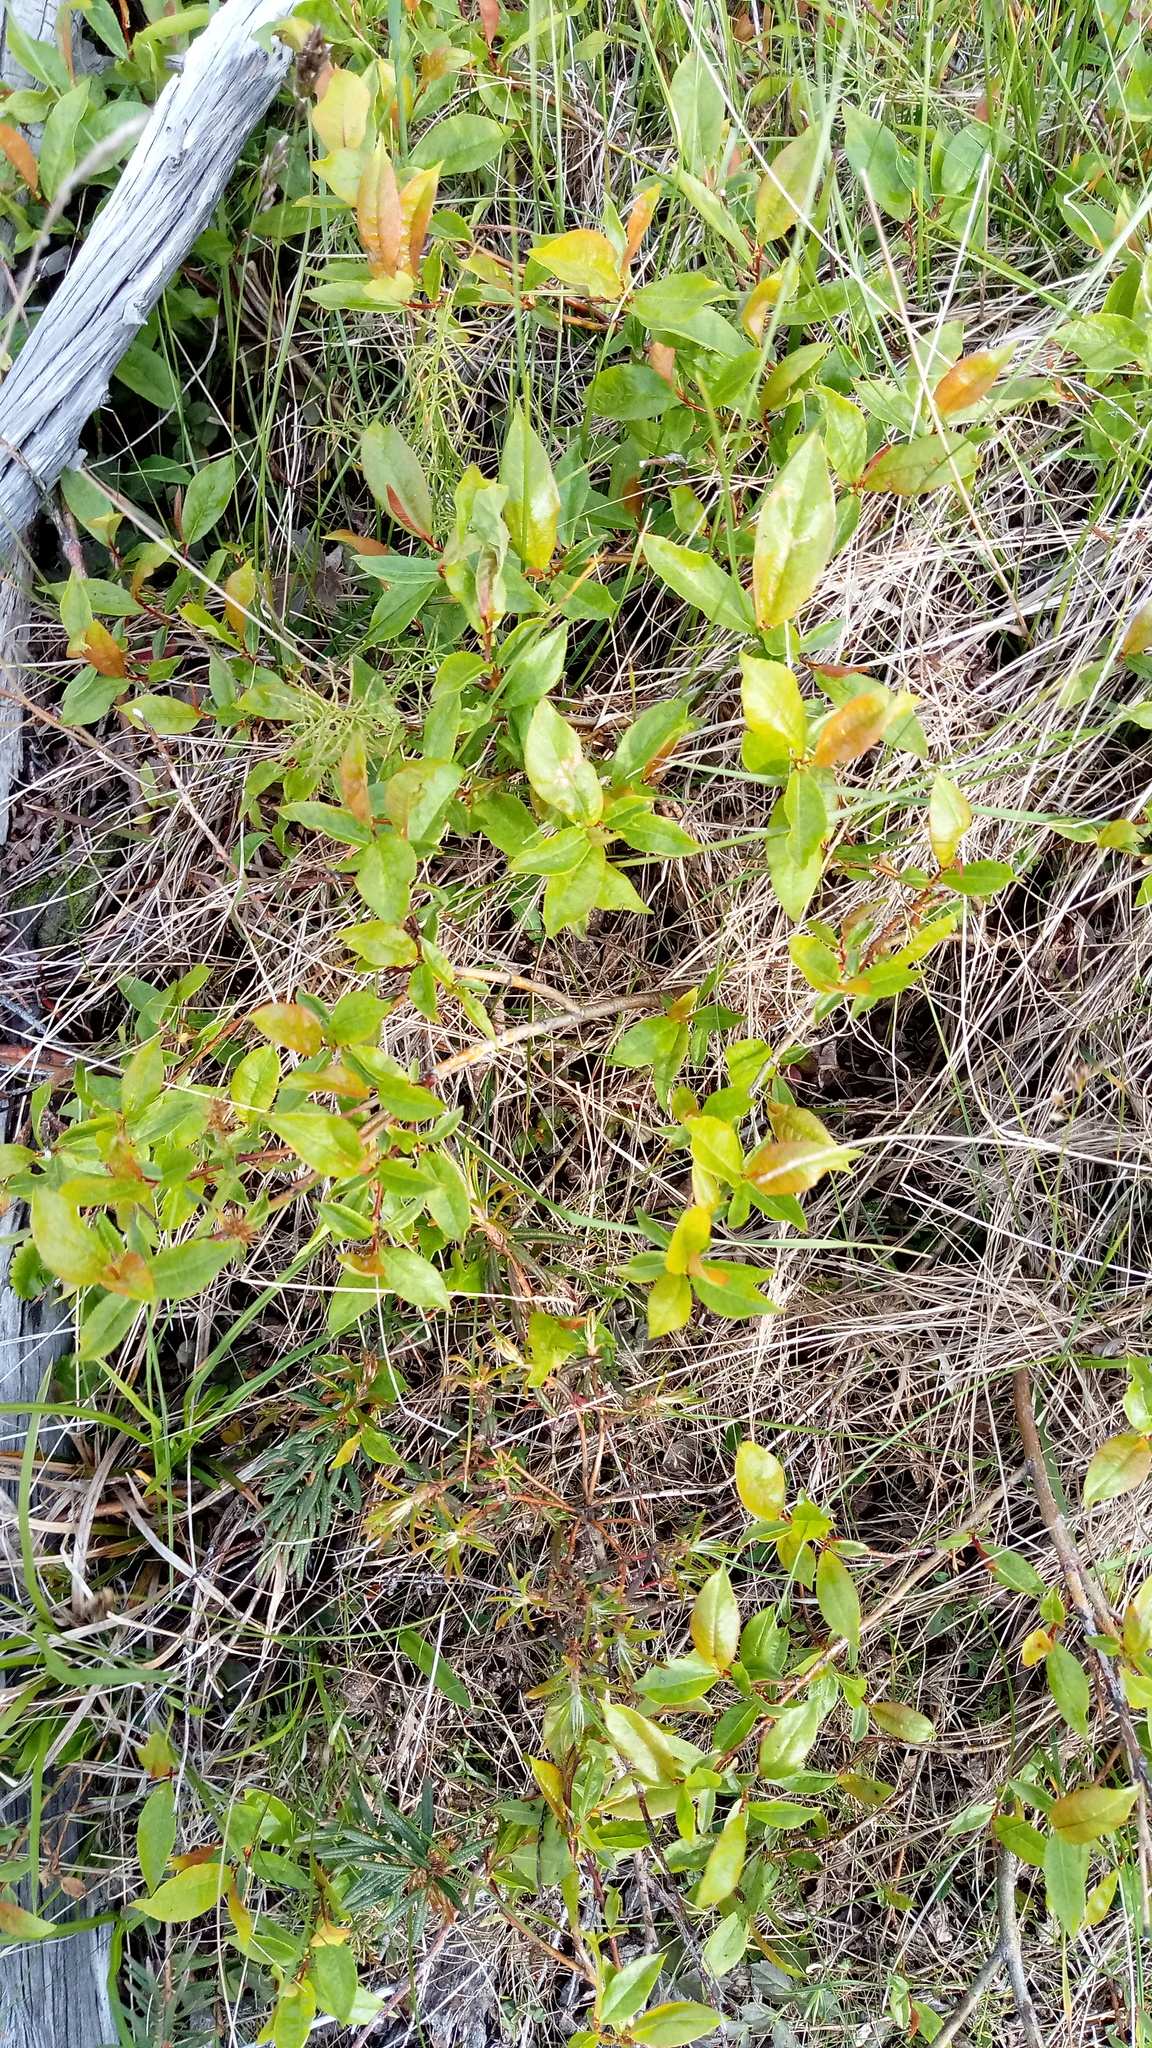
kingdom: Plantae
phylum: Tracheophyta
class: Magnoliopsida
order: Malpighiales
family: Salicaceae
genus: Salix
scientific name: Salix hastata
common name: Halberd willow
